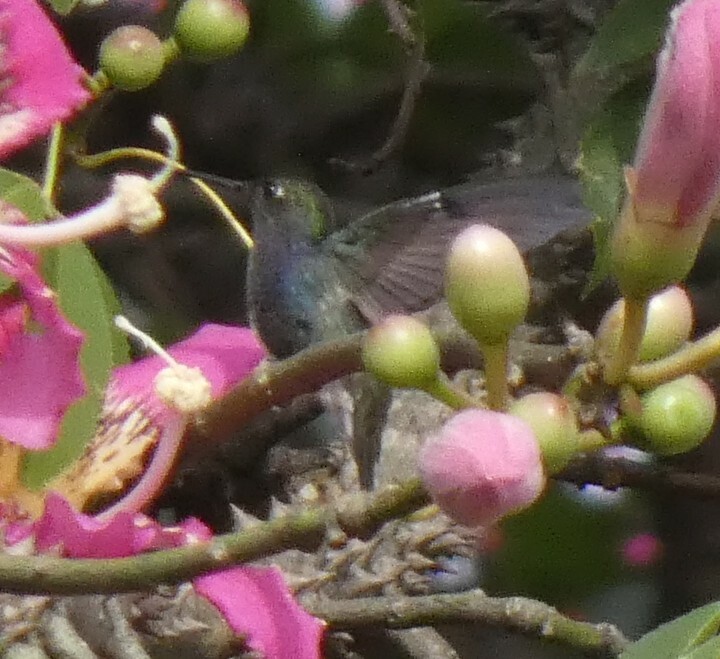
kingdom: Animalia
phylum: Chordata
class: Aves
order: Apodiformes
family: Trochilidae
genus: Chionomesa
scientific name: Chionomesa lactea
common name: Sapphire-spangled emerald
